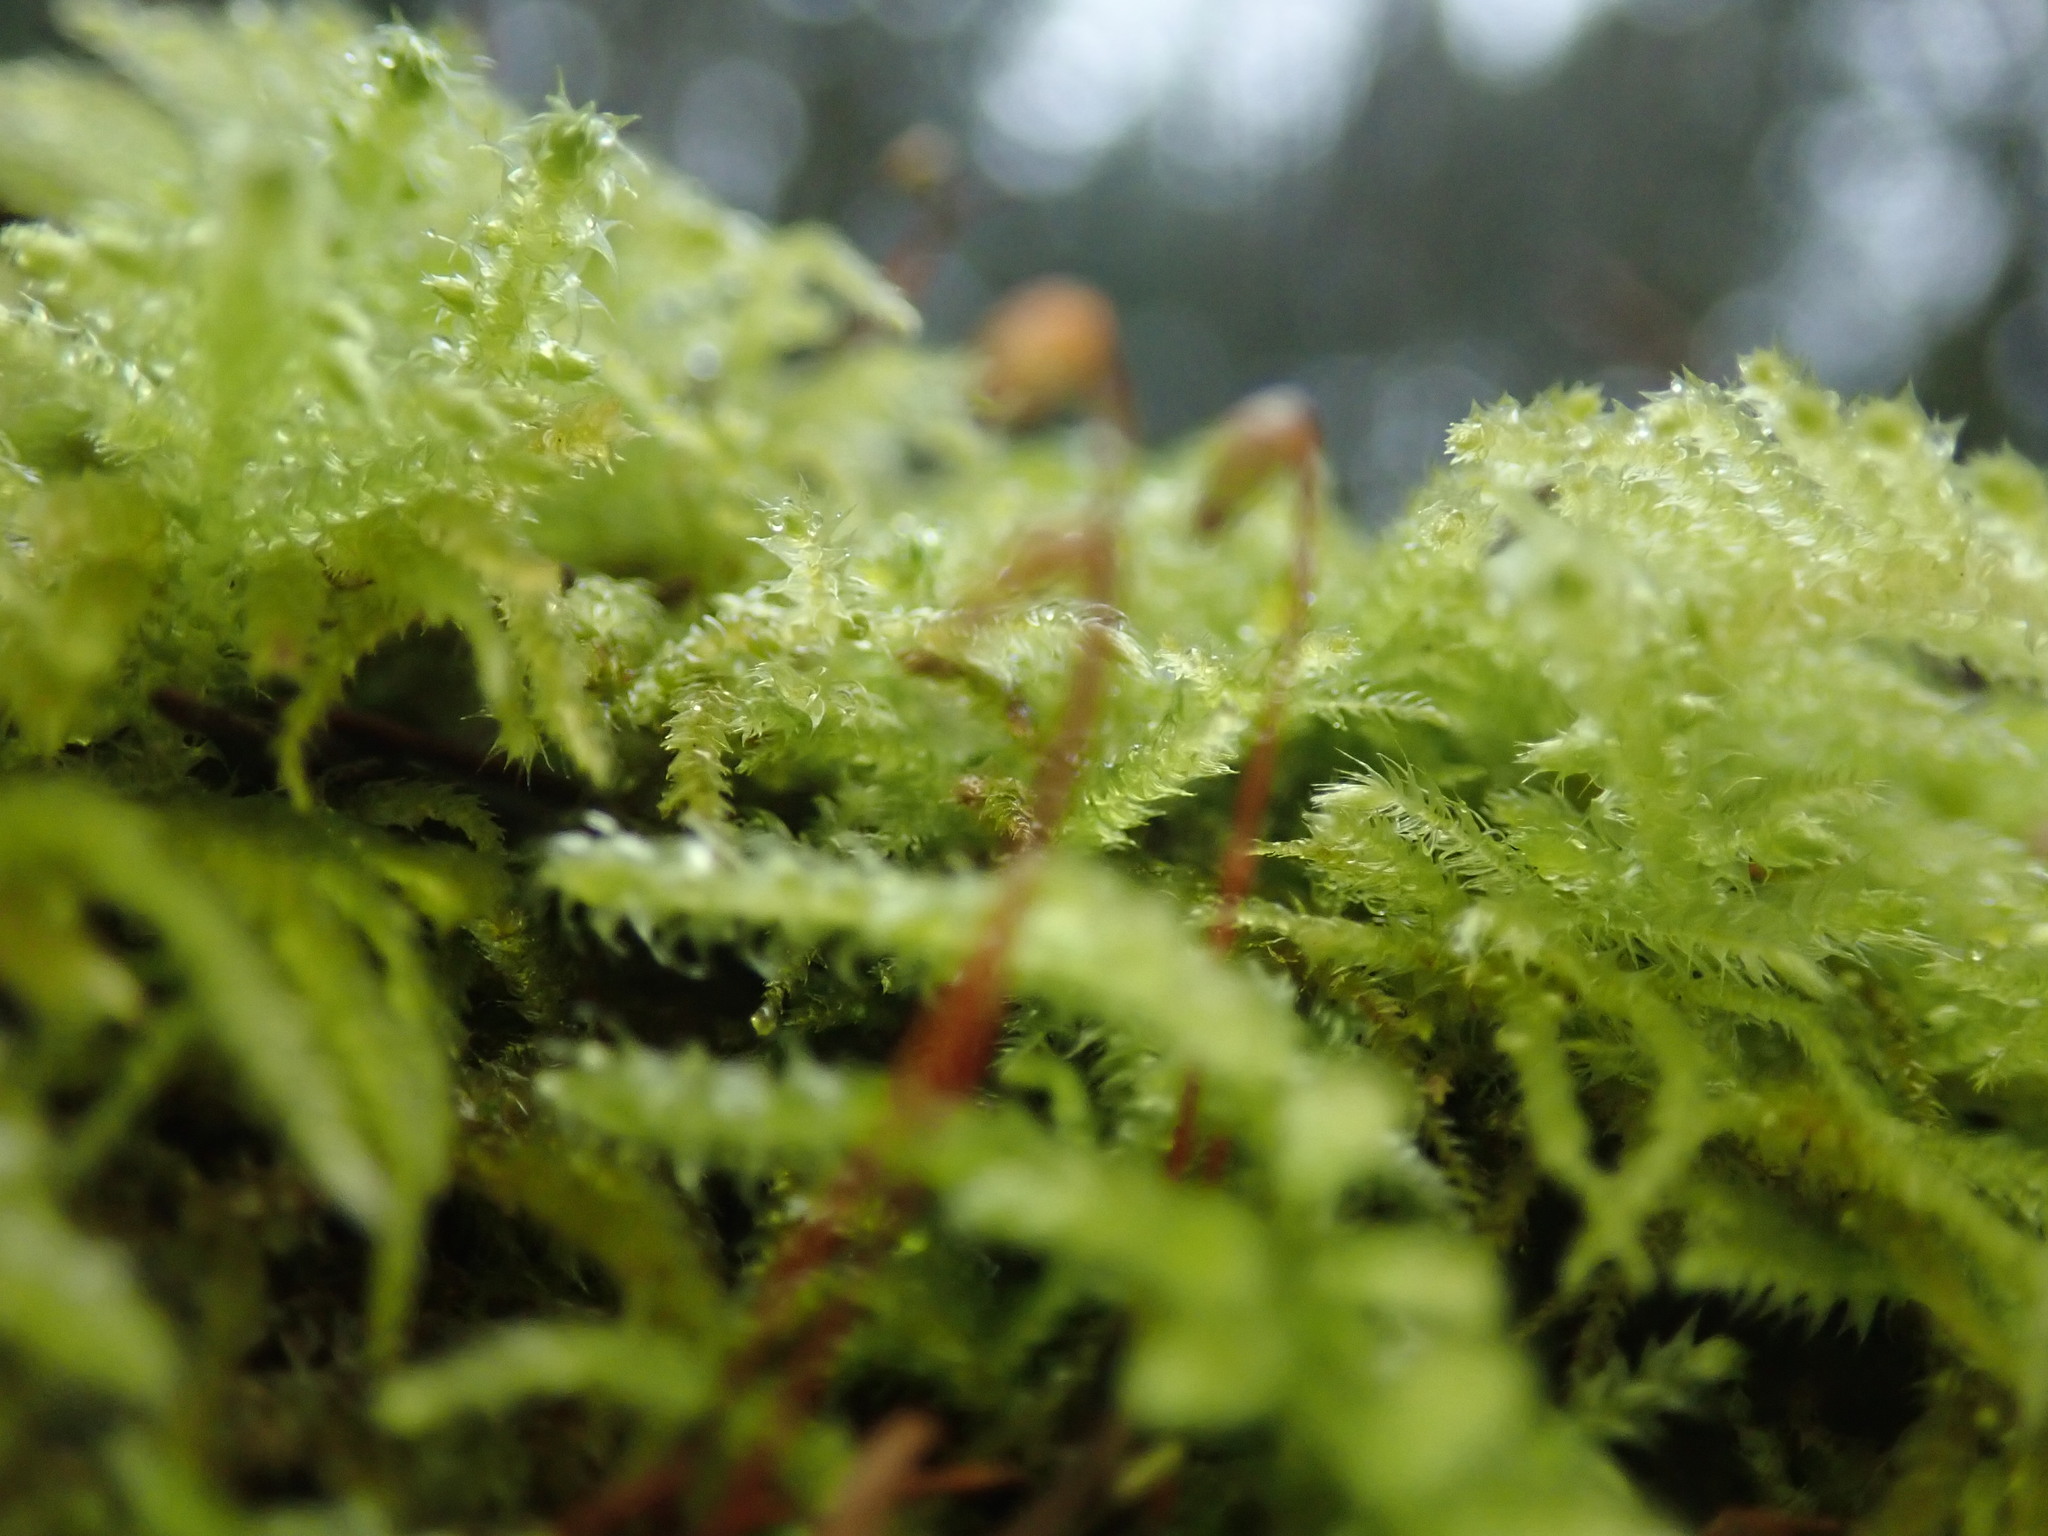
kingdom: Plantae
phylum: Bryophyta
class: Bryopsida
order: Hypnales
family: Brachytheciaceae
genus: Kindbergia
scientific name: Kindbergia oregana
